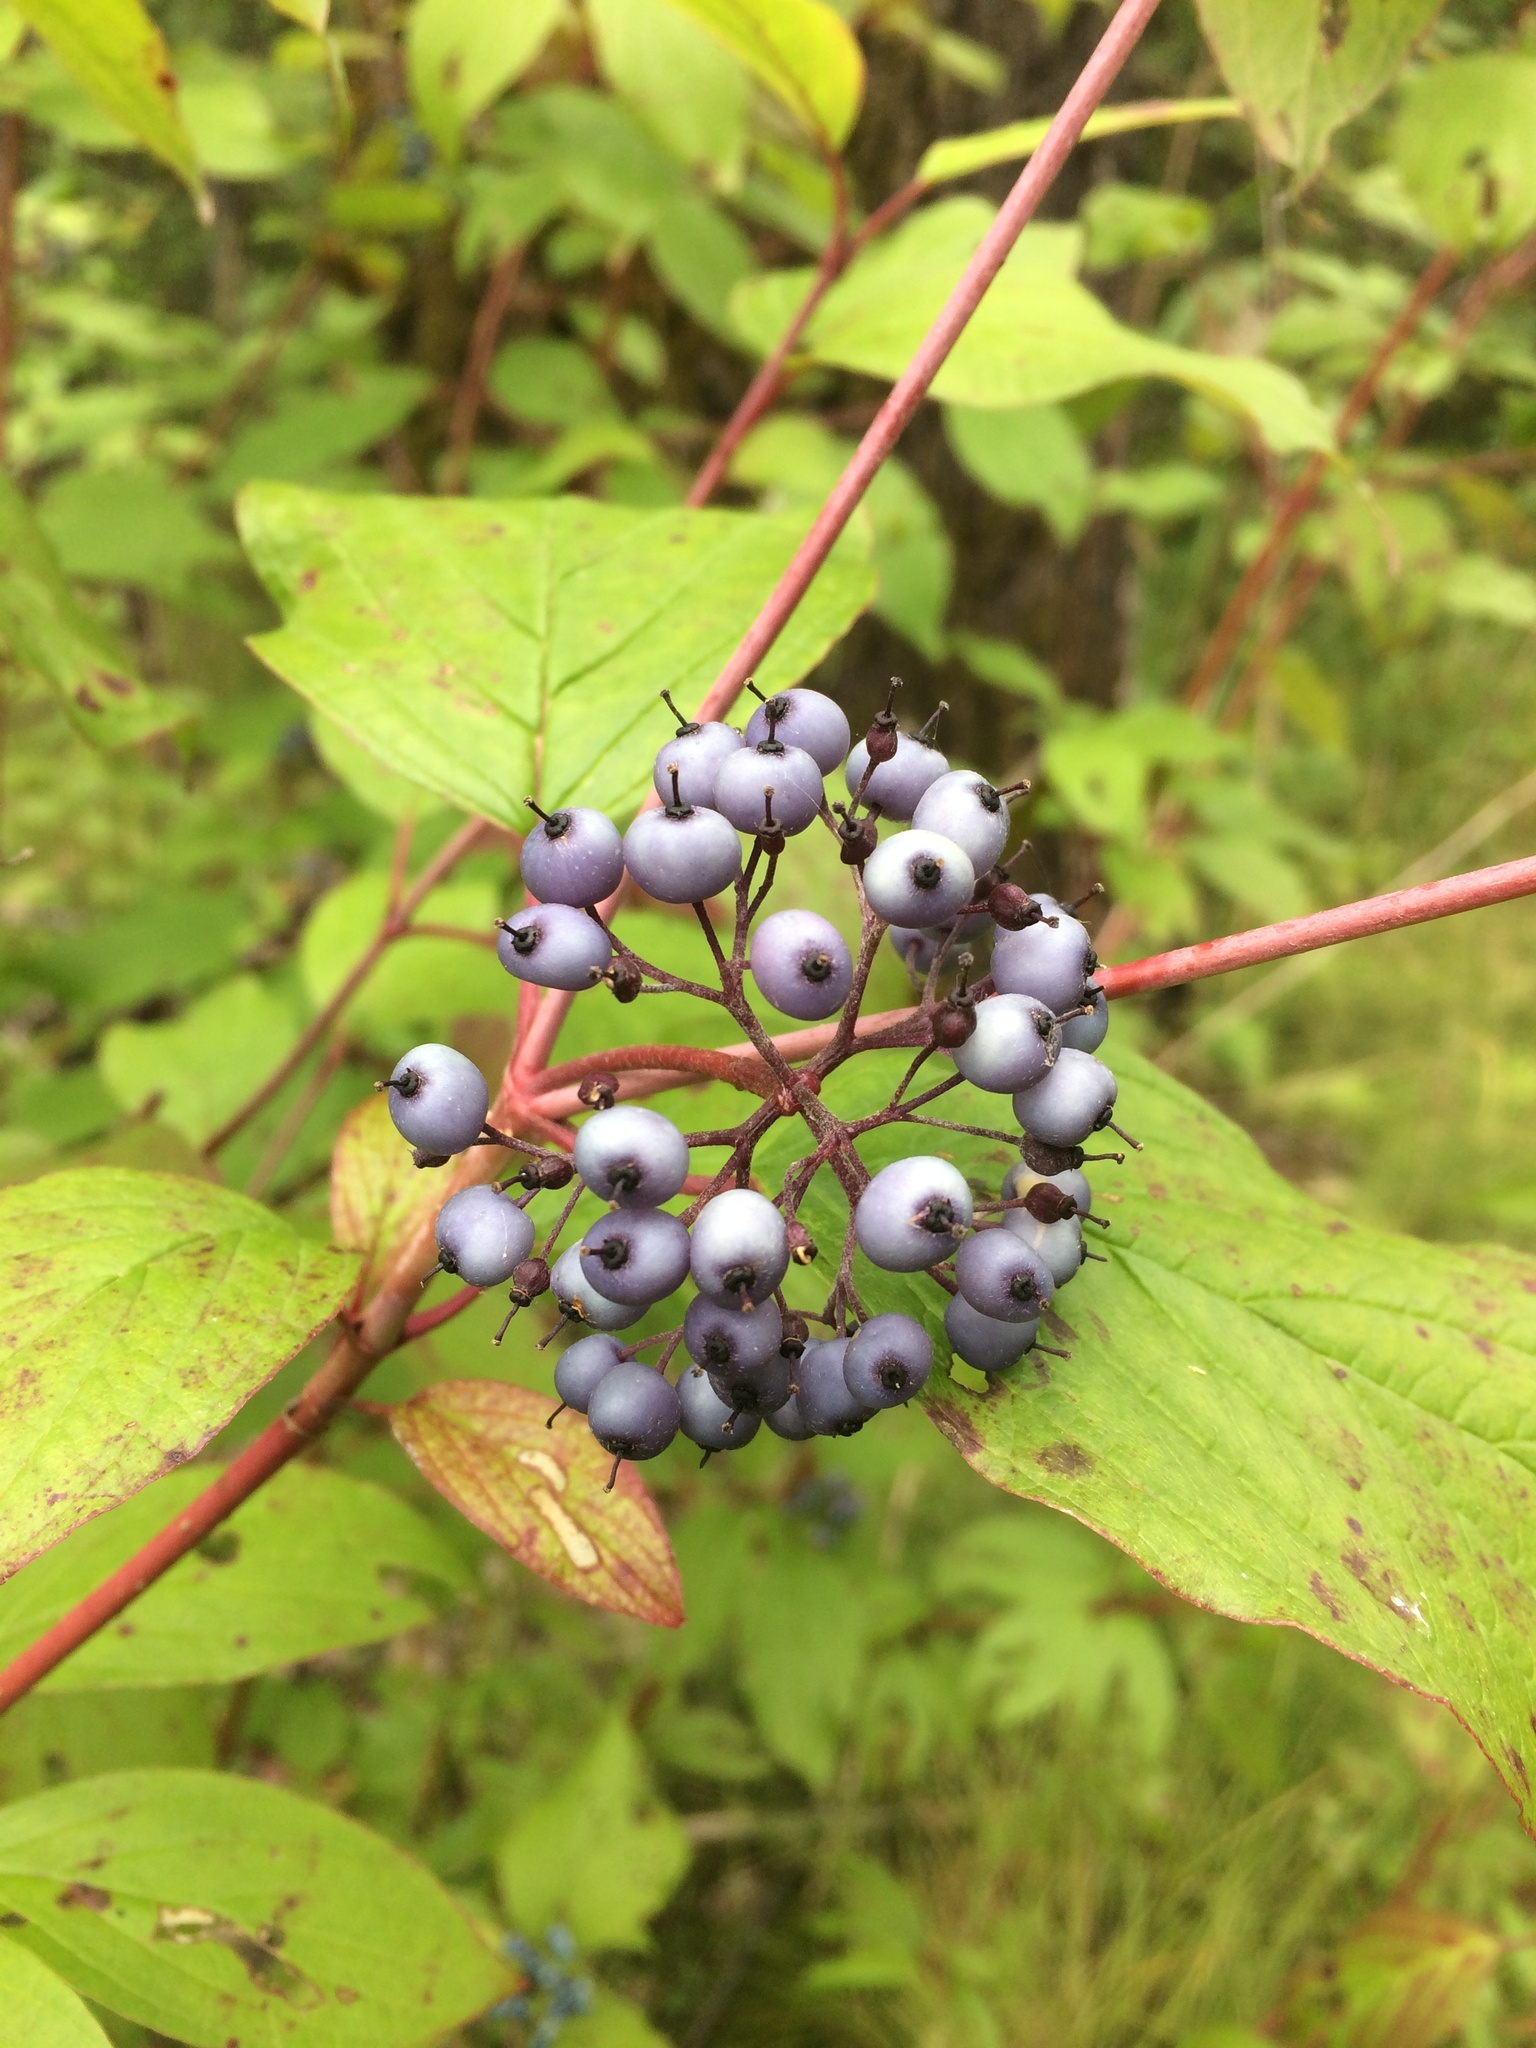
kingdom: Plantae
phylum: Tracheophyta
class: Magnoliopsida
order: Cornales
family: Cornaceae
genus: Cornus
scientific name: Cornus alba
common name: White dogwood
